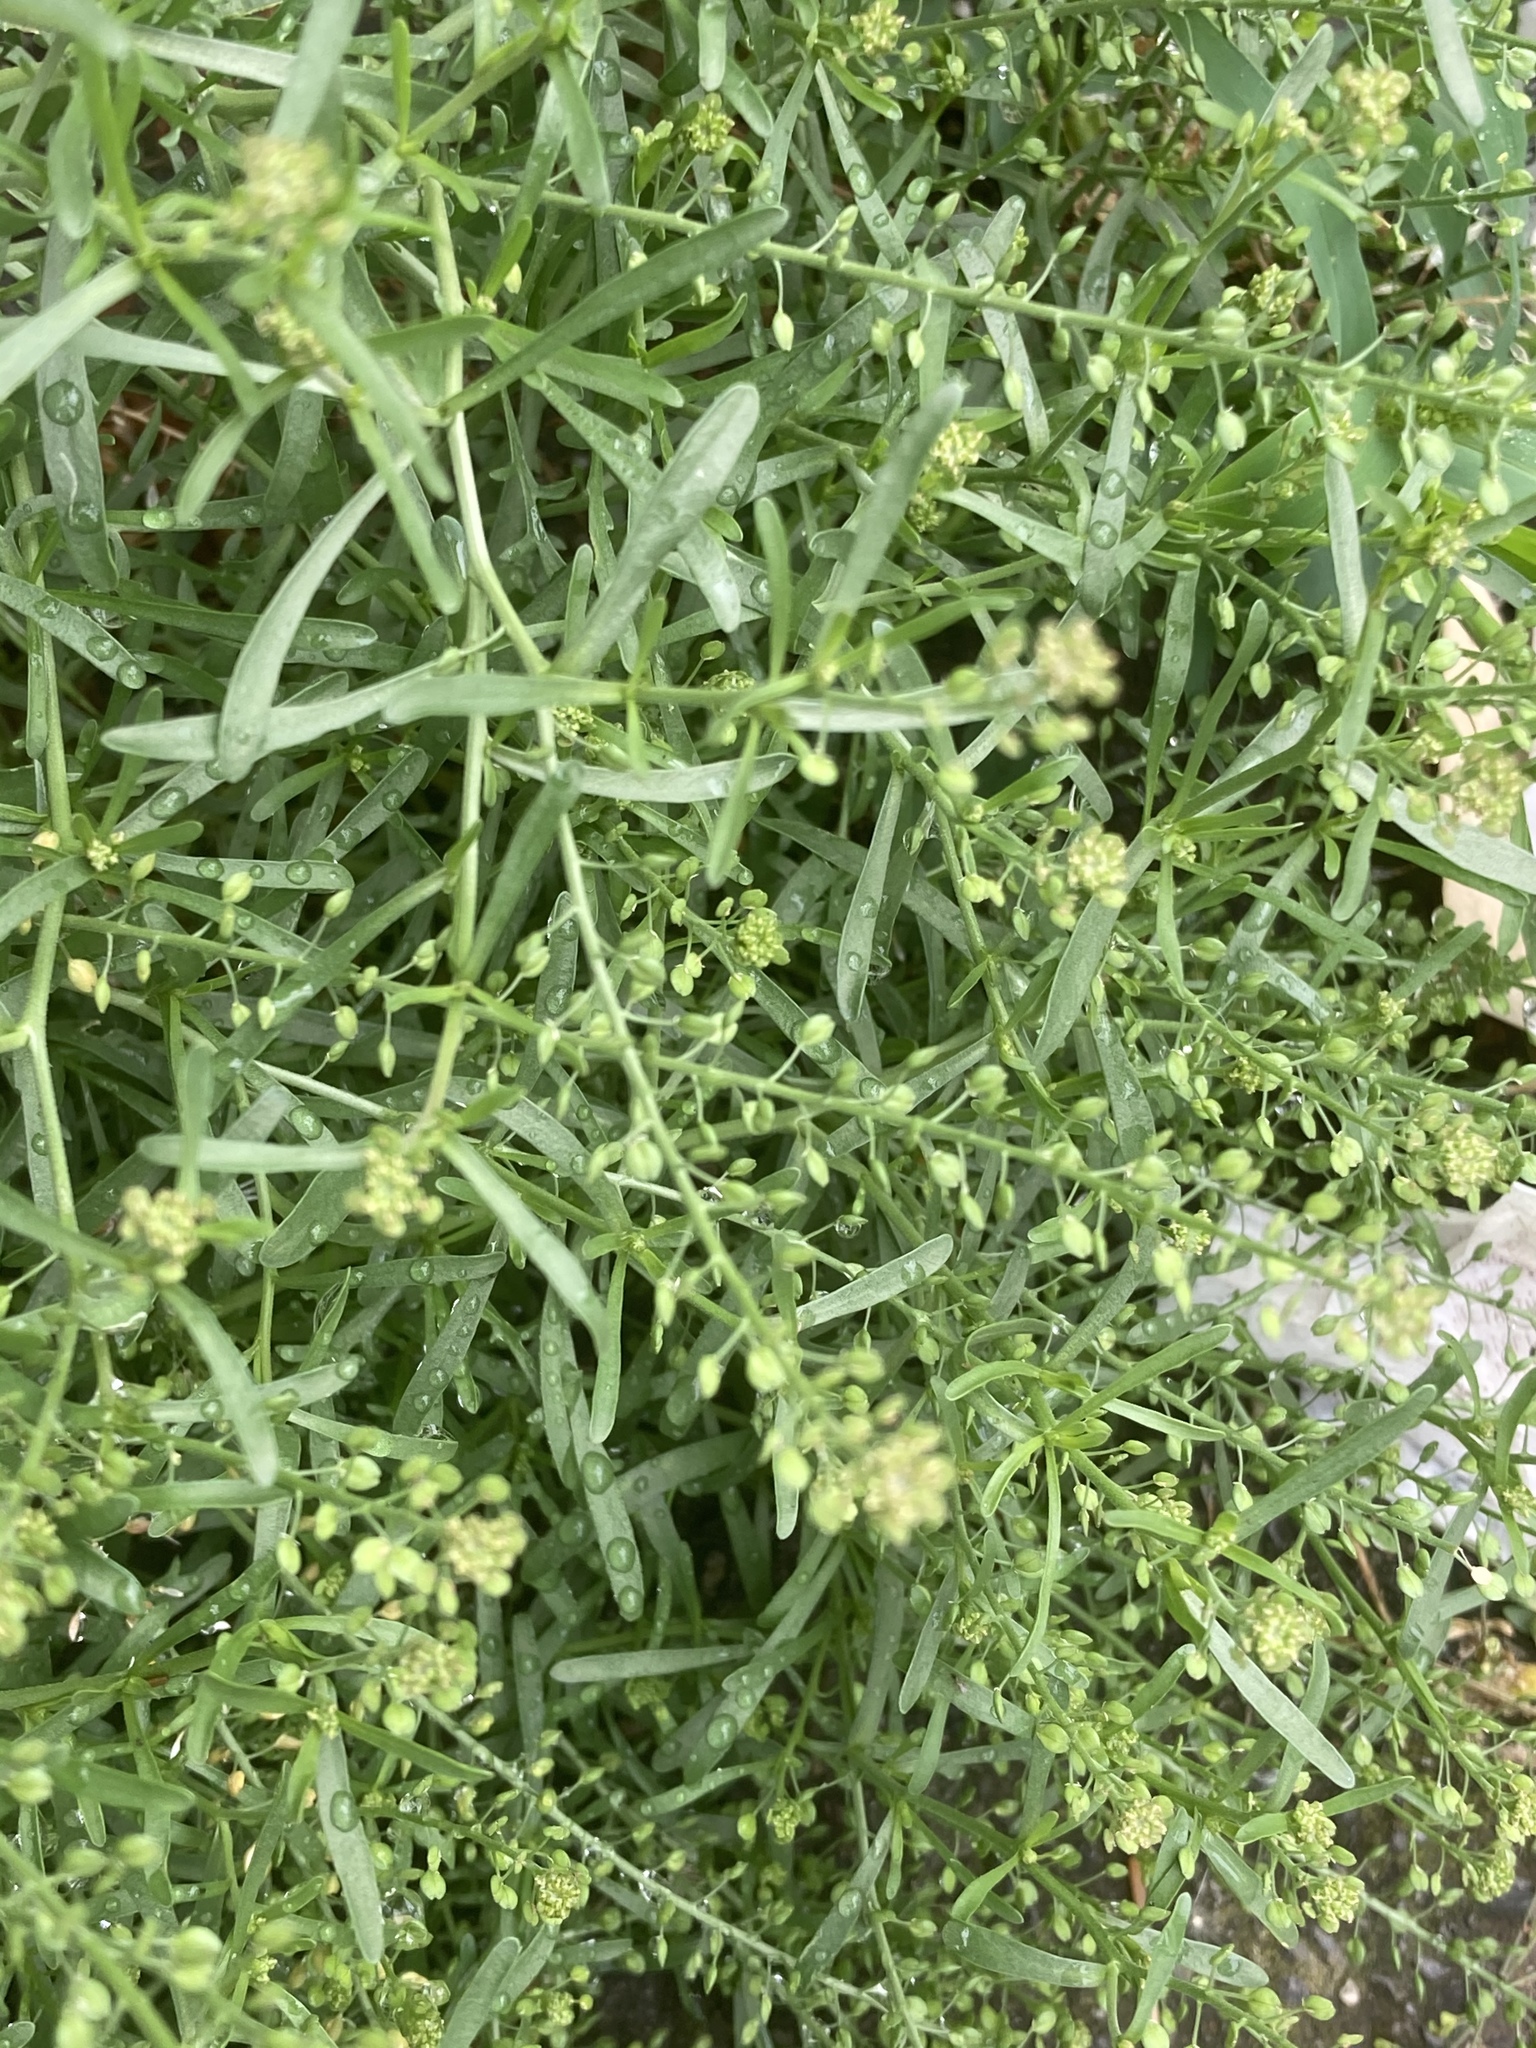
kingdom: Plantae
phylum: Tracheophyta
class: Magnoliopsida
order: Brassicales
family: Brassicaceae
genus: Lepidium
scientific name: Lepidium ruderale
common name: Narrow-leaved pepperwort
